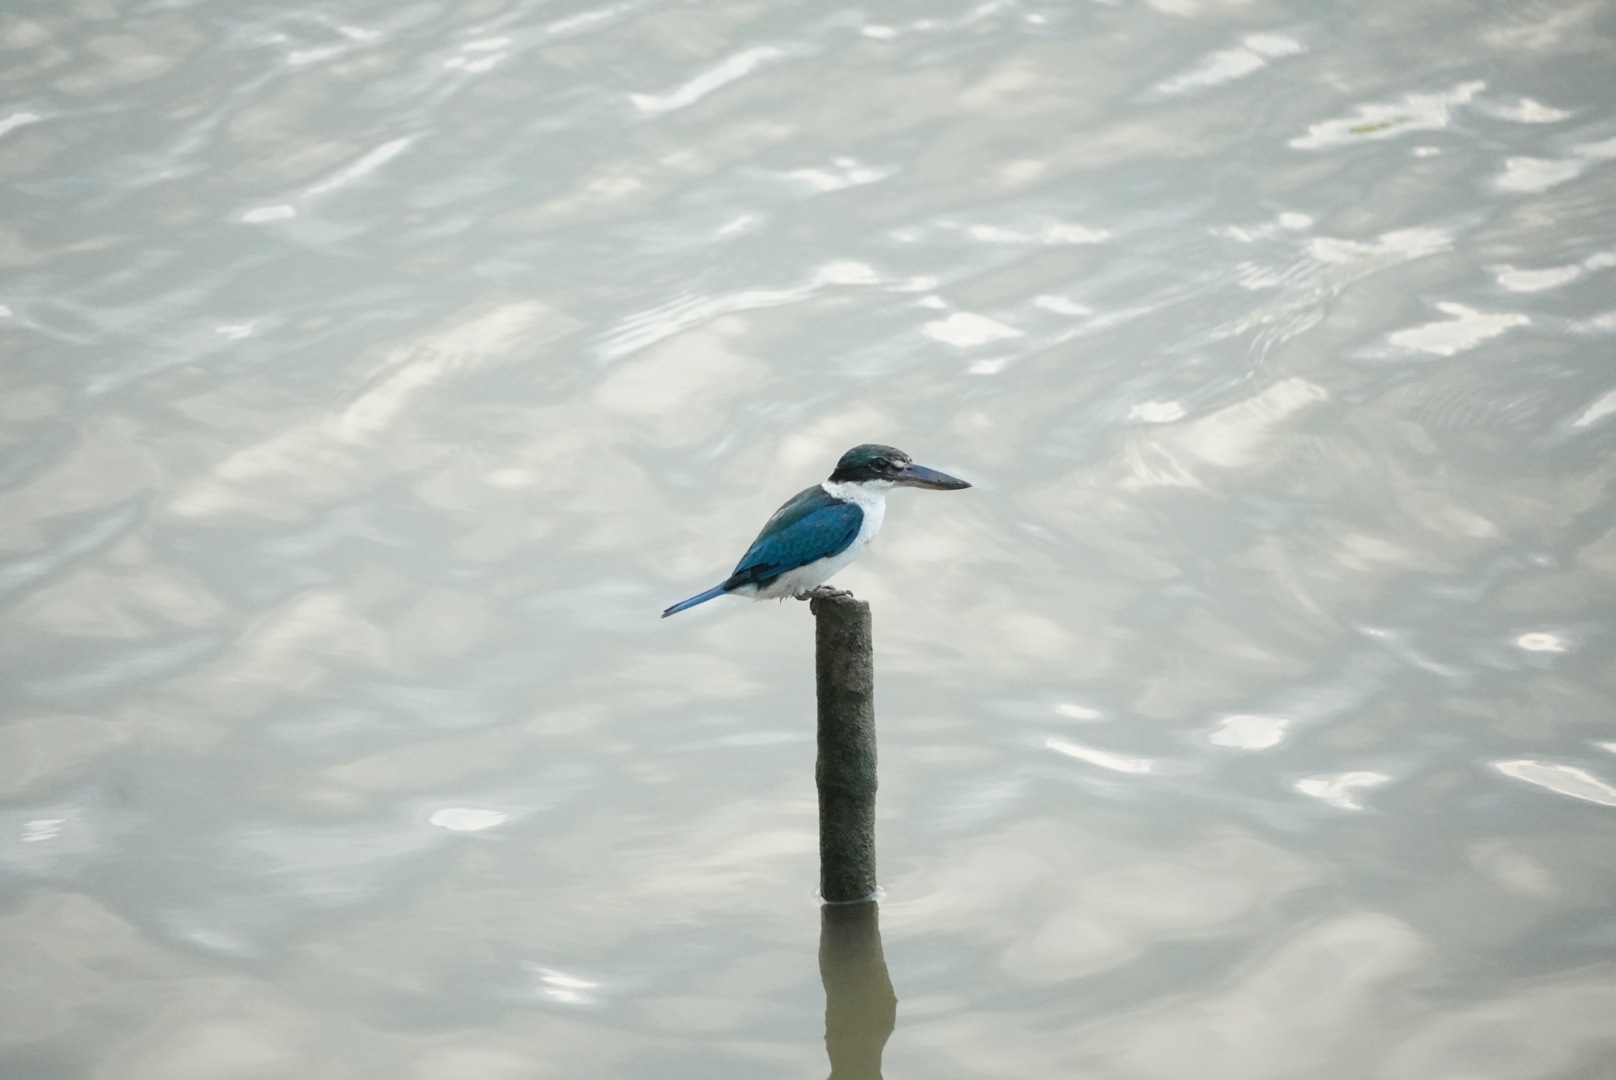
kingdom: Animalia
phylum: Chordata
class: Aves
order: Coraciiformes
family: Alcedinidae
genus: Todiramphus
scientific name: Todiramphus chloris
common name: Collared kingfisher
